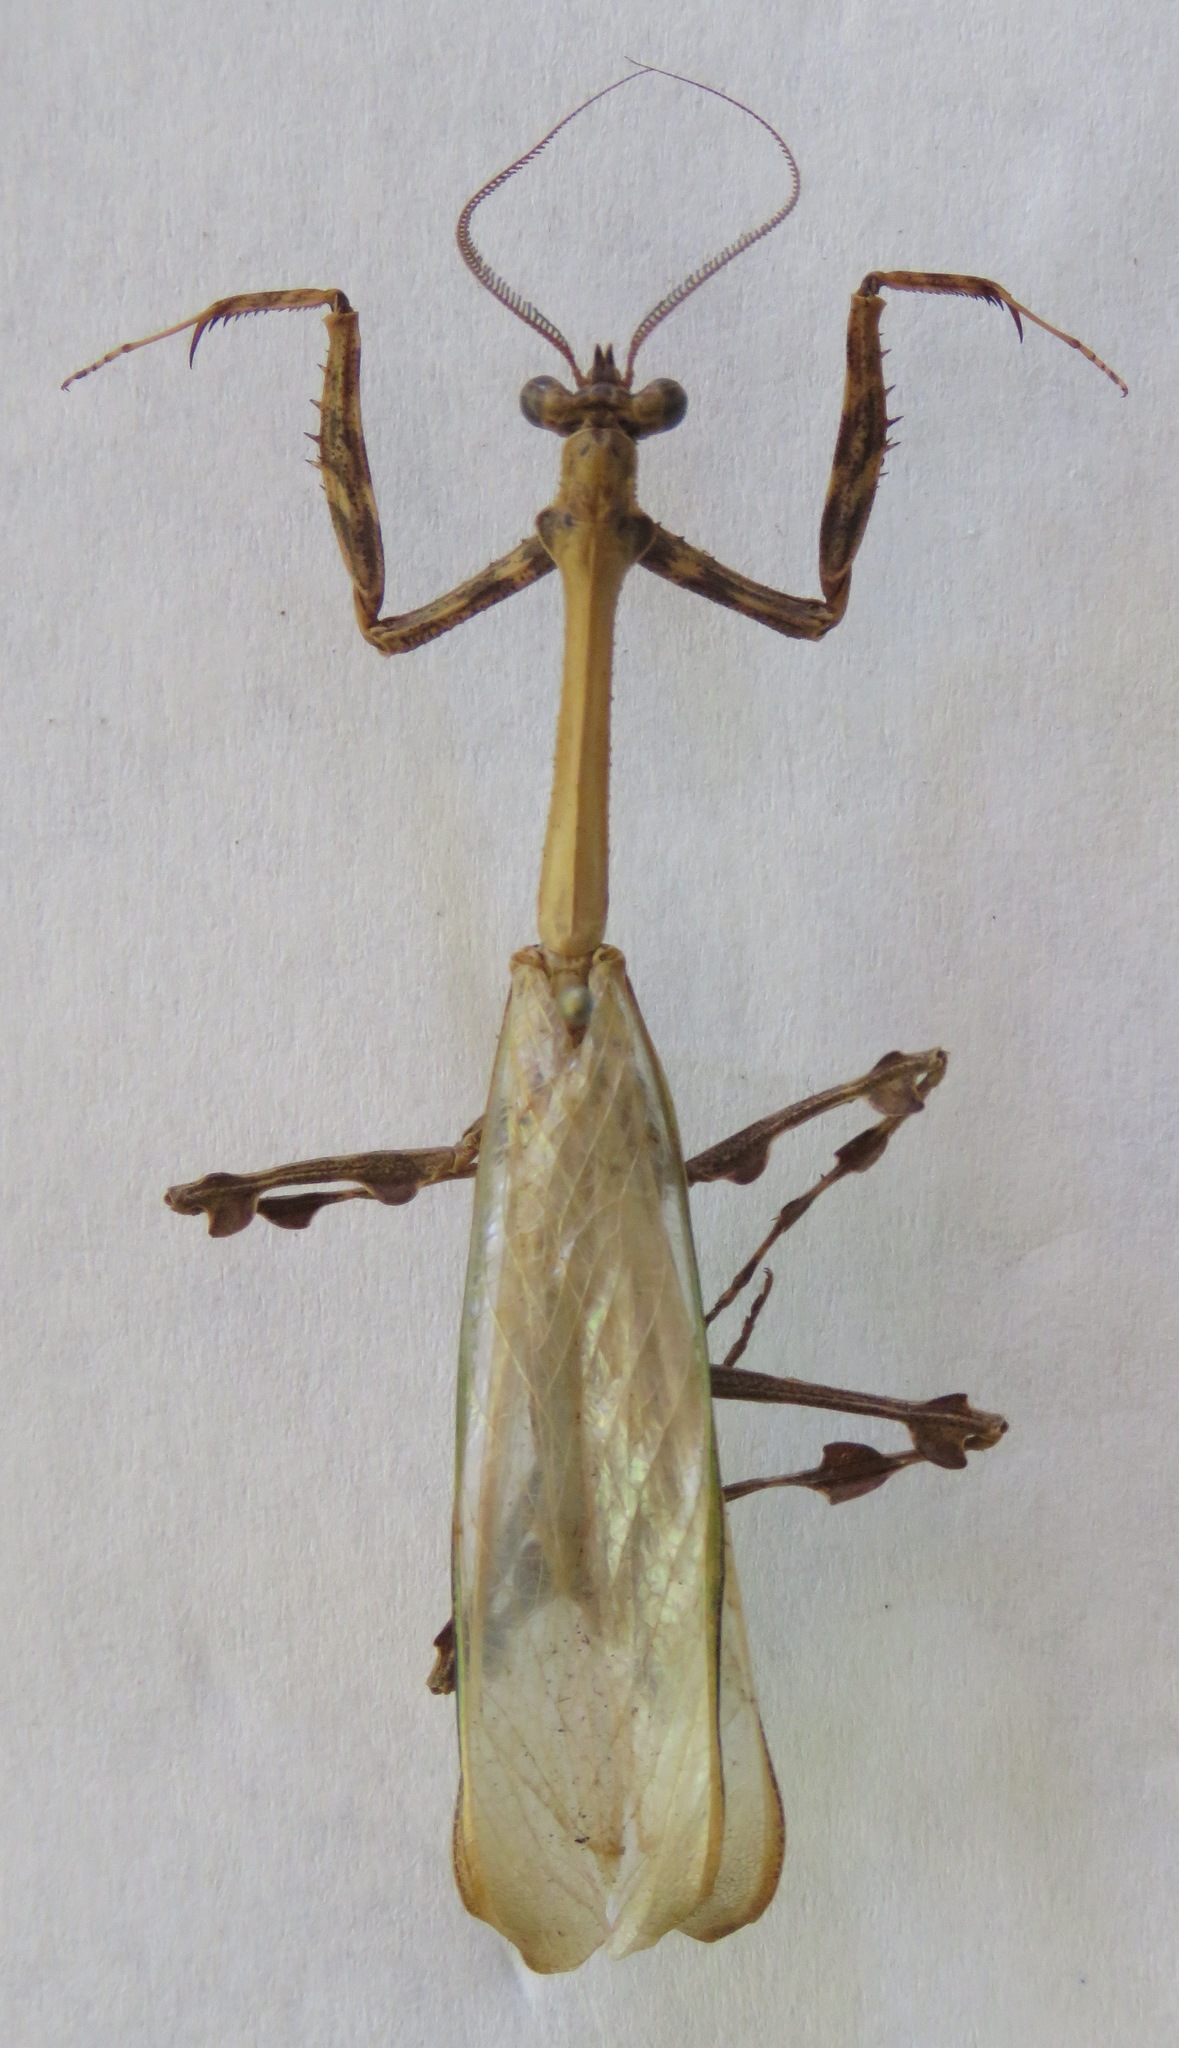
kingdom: Animalia
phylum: Arthropoda
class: Insecta
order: Mantodea
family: Mantidae
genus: Vates
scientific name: Vates pectinicornis
